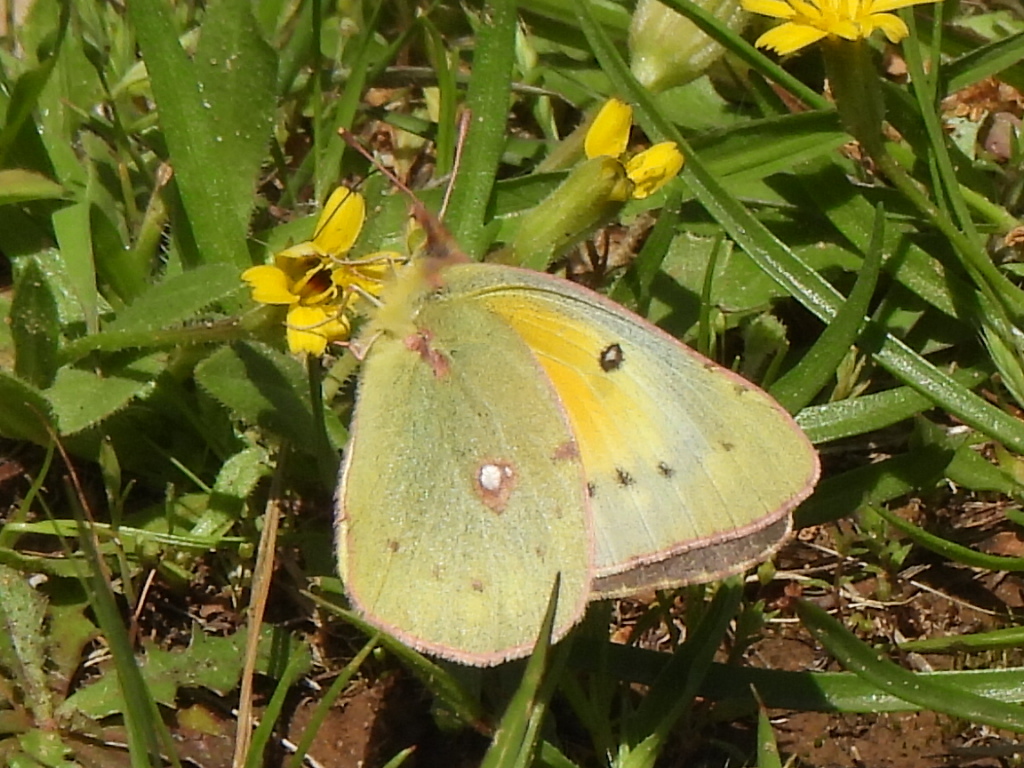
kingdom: Animalia
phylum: Arthropoda
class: Insecta
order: Lepidoptera
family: Pieridae
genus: Colias
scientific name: Colias eurytheme
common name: Alfalfa butterfly
